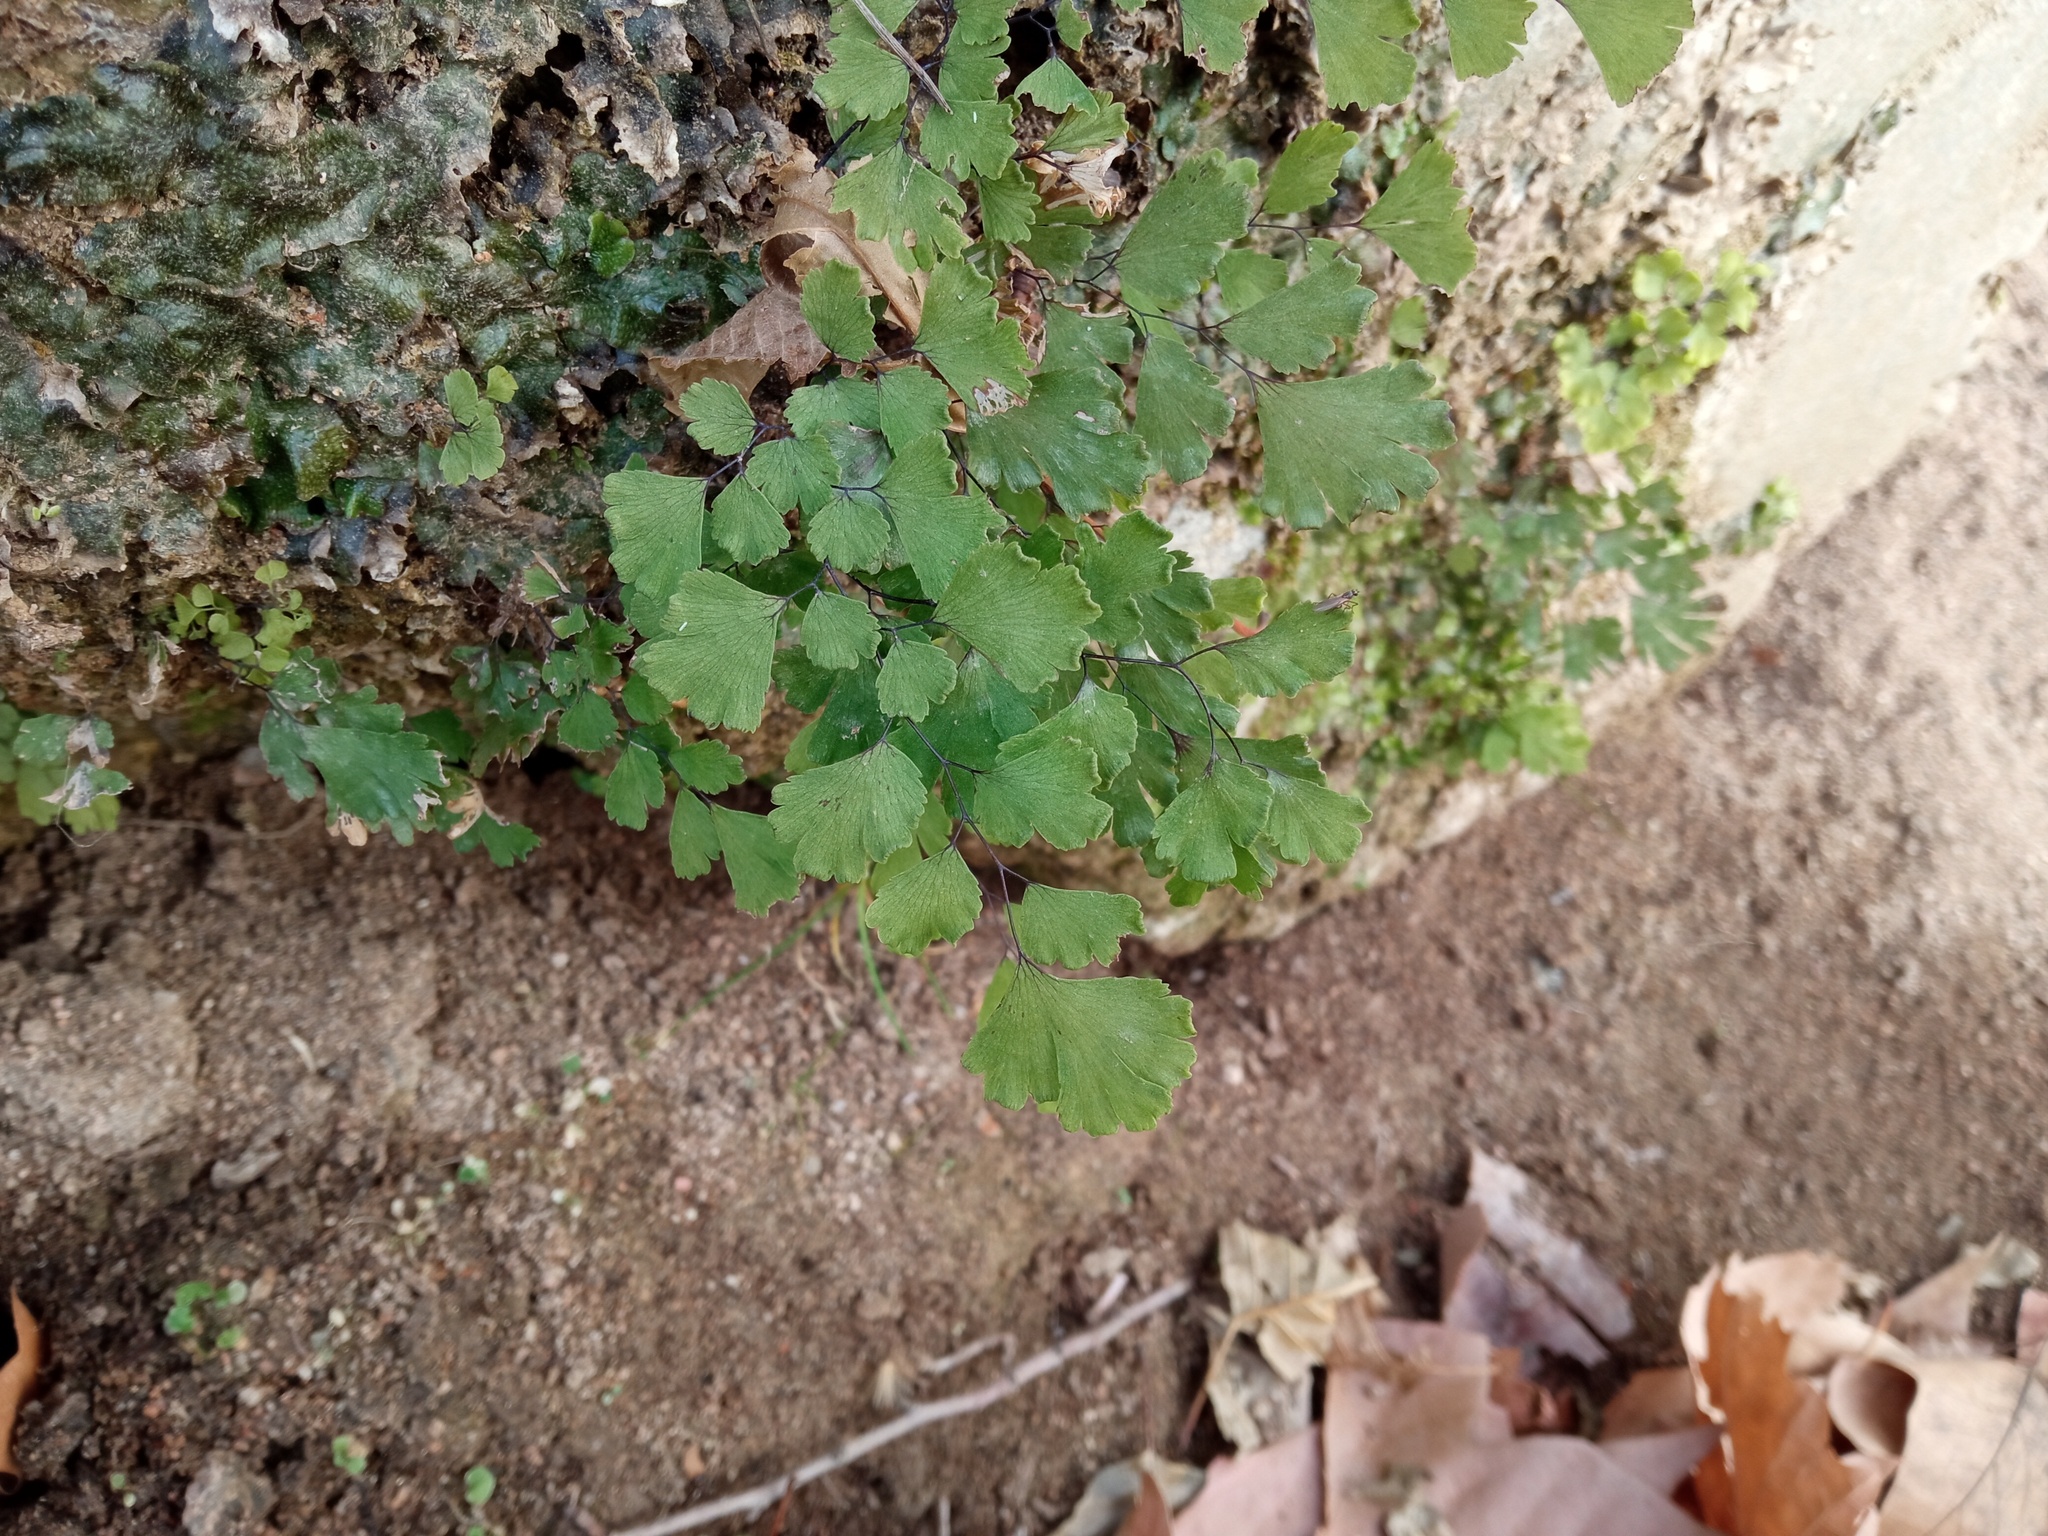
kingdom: Plantae
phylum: Tracheophyta
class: Polypodiopsida
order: Polypodiales
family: Pteridaceae
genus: Adiantum
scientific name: Adiantum capillus-veneris
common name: Maidenhair fern
